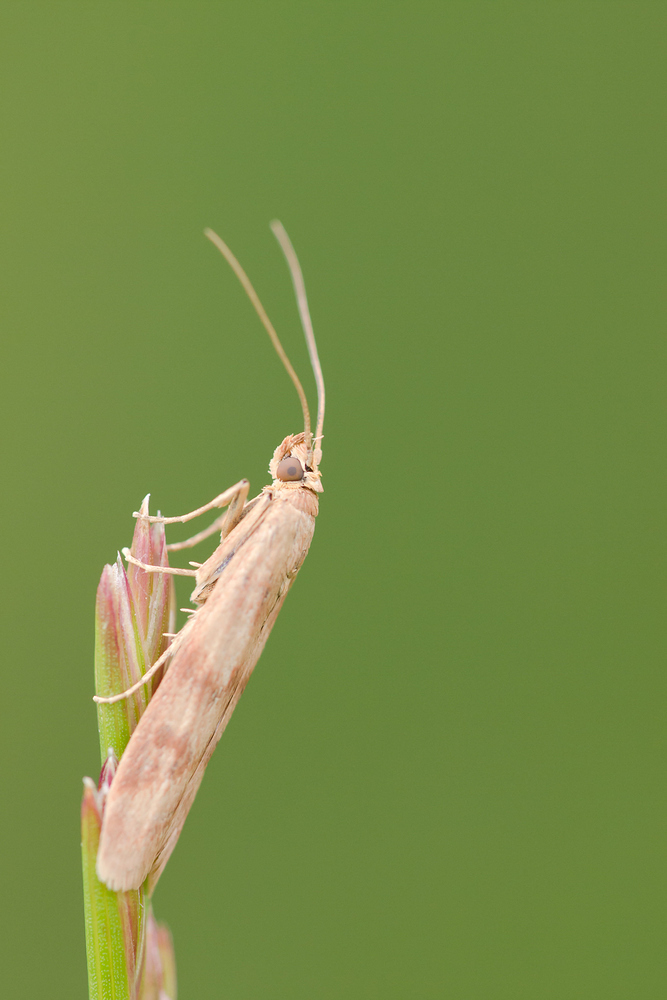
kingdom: Animalia
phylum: Arthropoda
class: Insecta
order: Lepidoptera
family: Pyralidae
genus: Homoeosoma
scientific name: Homoeosoma sinuella
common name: Twin-barred knot-horn
